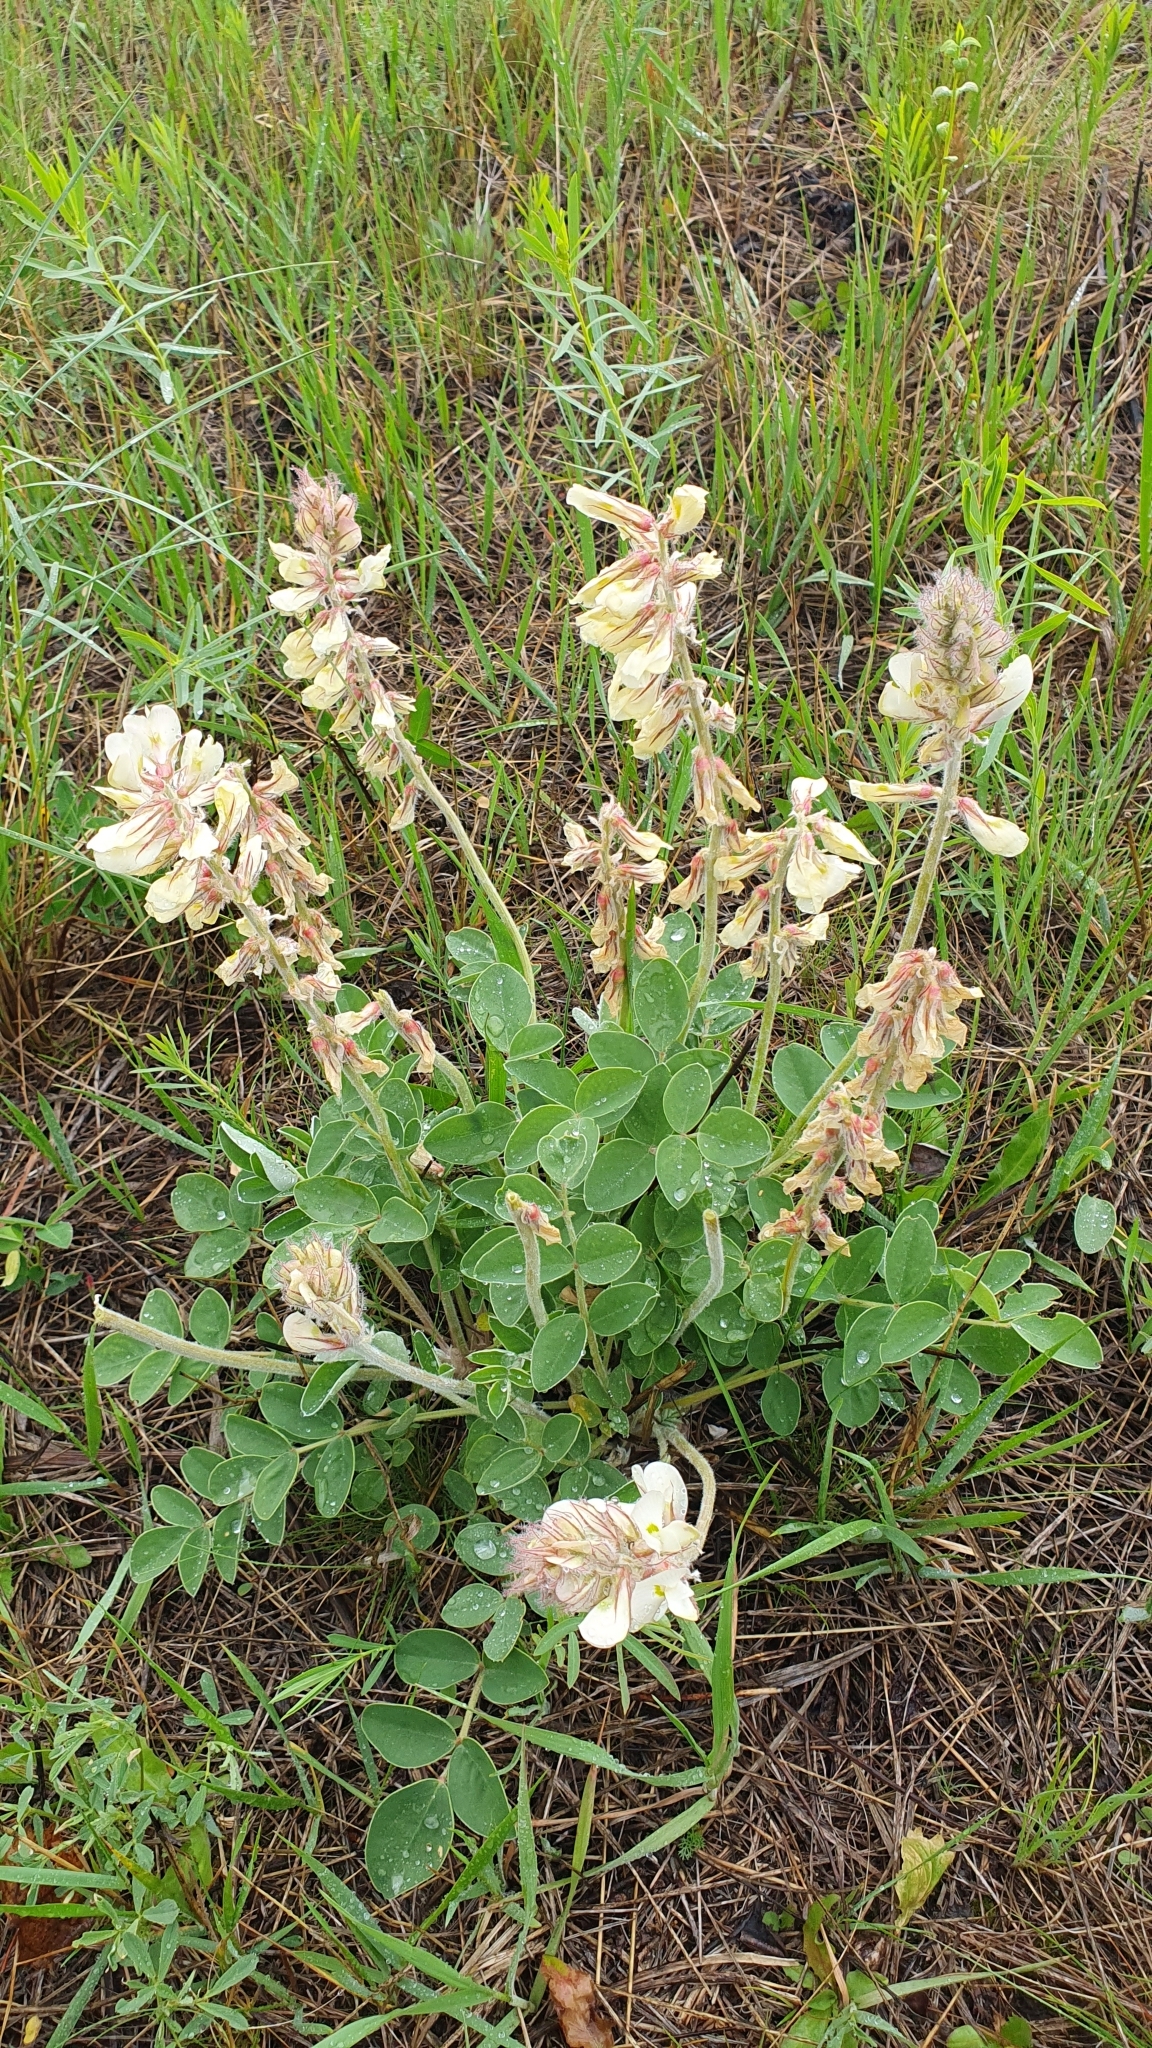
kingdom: Plantae
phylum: Tracheophyta
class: Magnoliopsida
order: Fabales
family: Fabaceae
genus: Hedysarum
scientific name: Hedysarum grandiflorum
